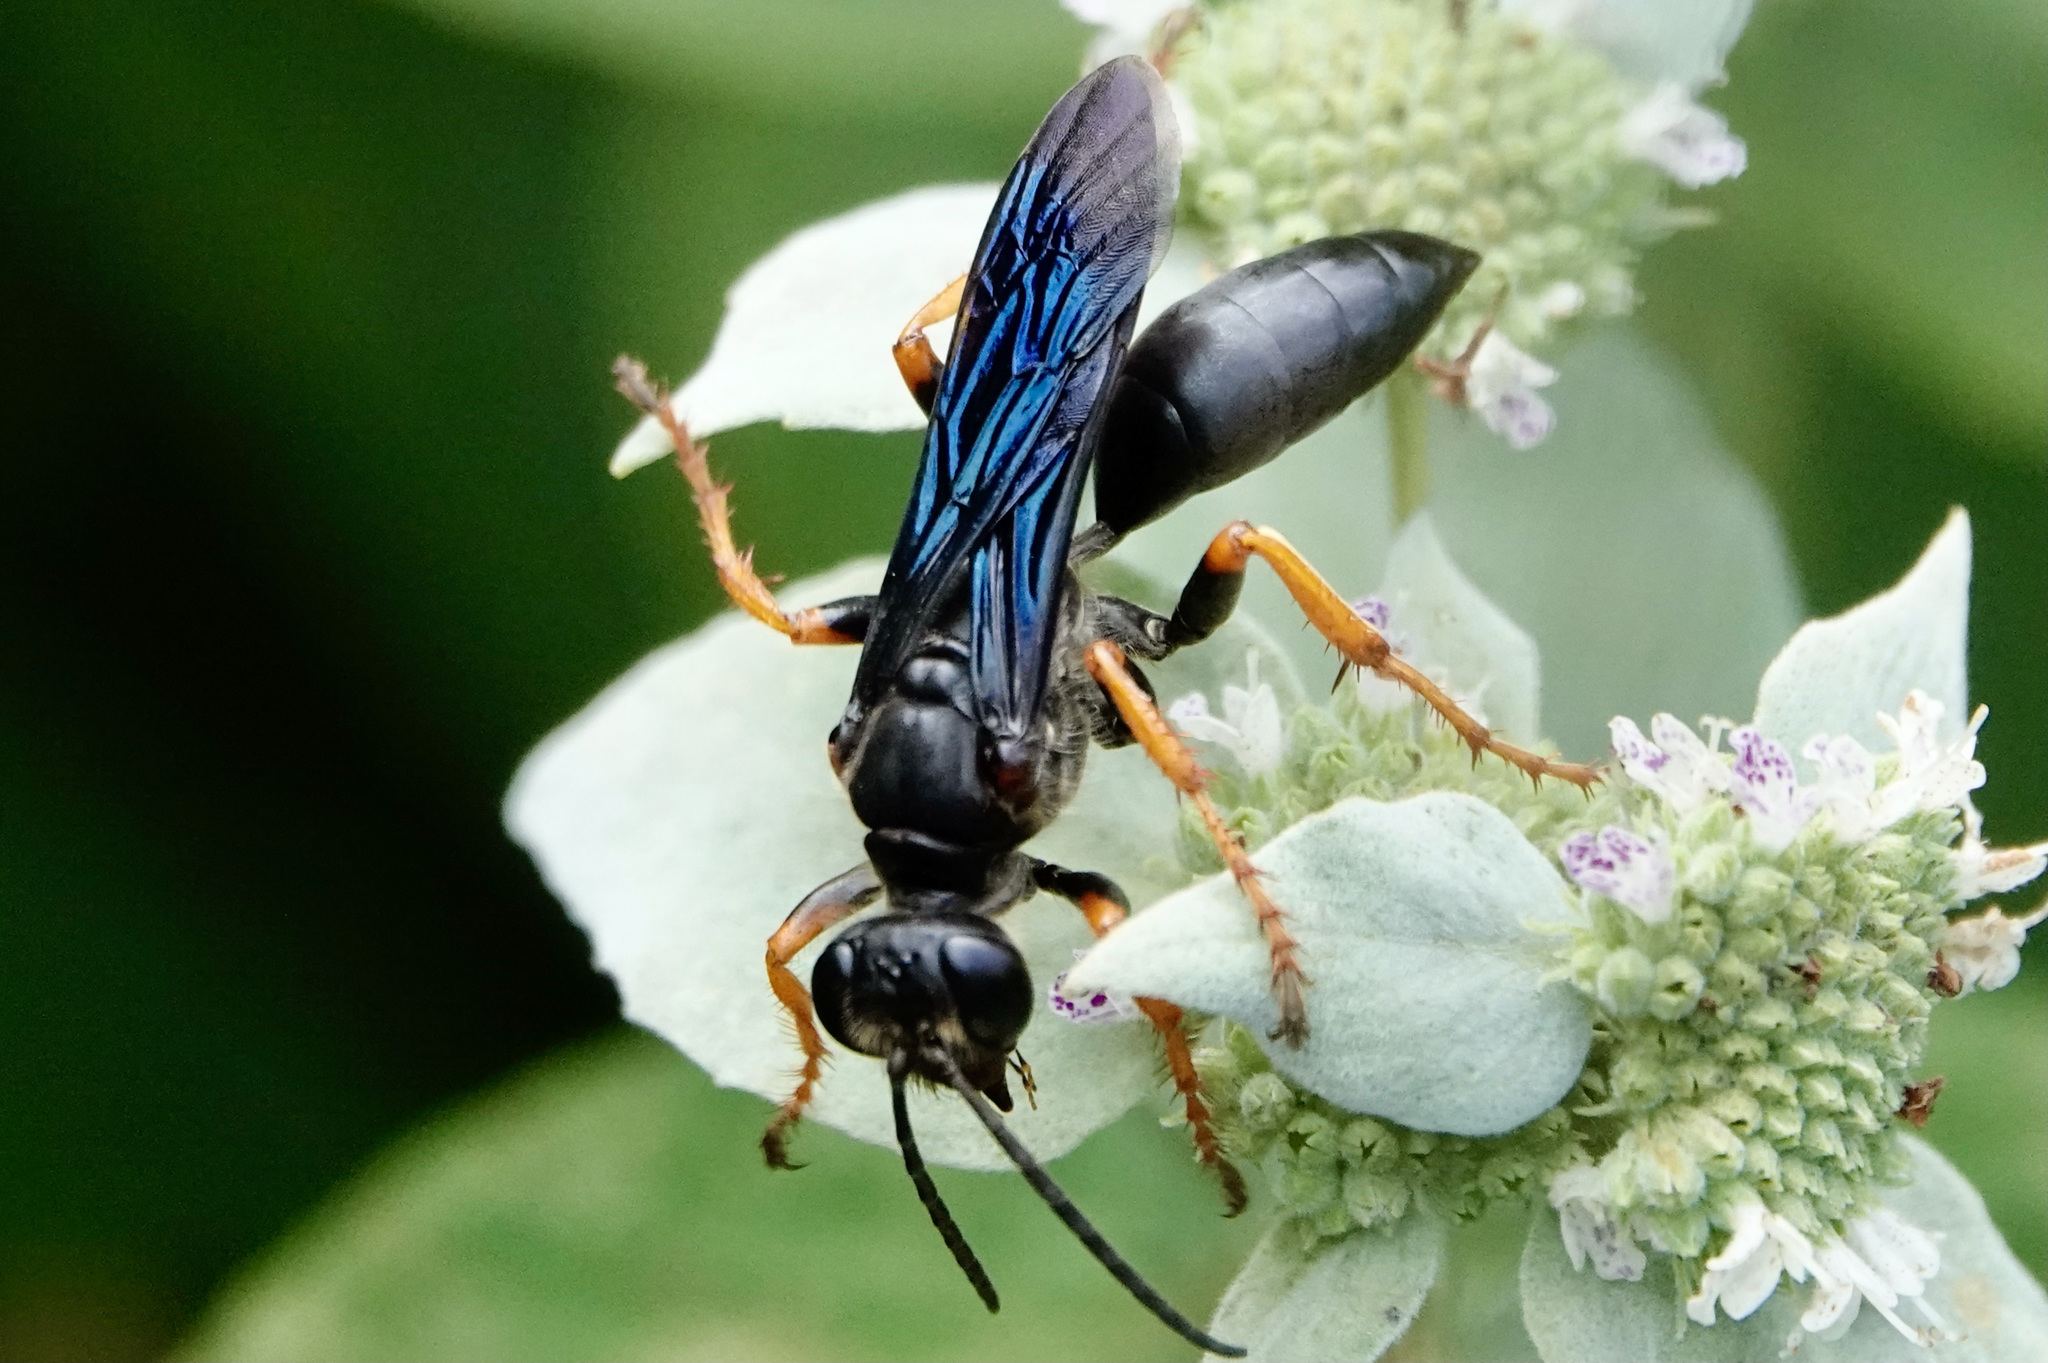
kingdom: Animalia
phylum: Arthropoda
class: Insecta
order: Hymenoptera
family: Sphecidae
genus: Sphex
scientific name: Sphex nudus
